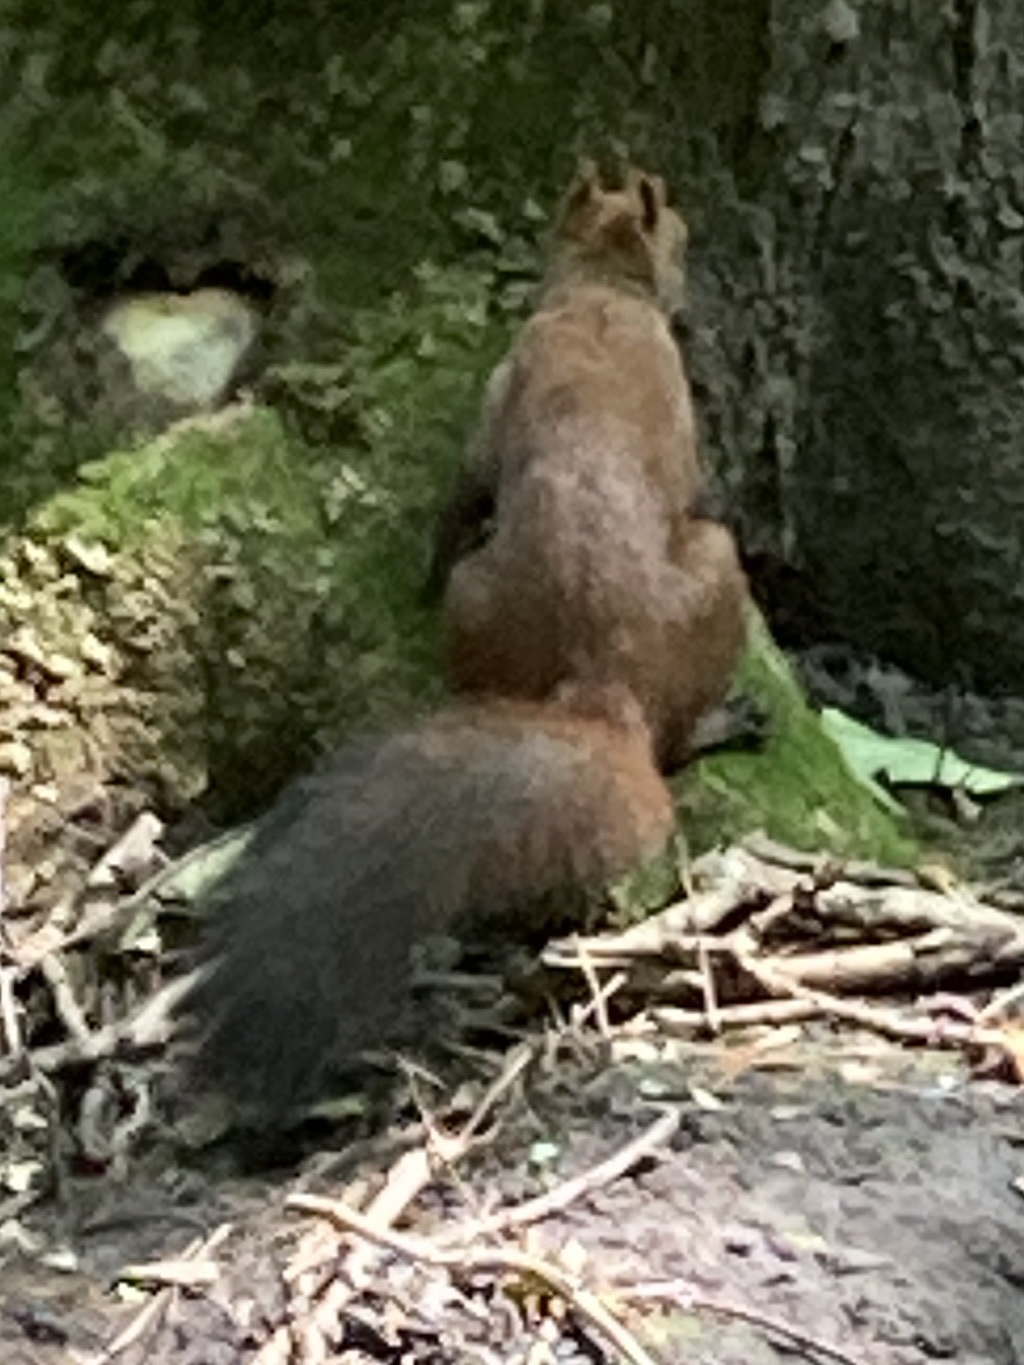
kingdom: Animalia
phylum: Chordata
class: Mammalia
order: Rodentia
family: Sciuridae
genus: Sciurus
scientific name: Sciurus vulgaris
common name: Eurasian red squirrel
